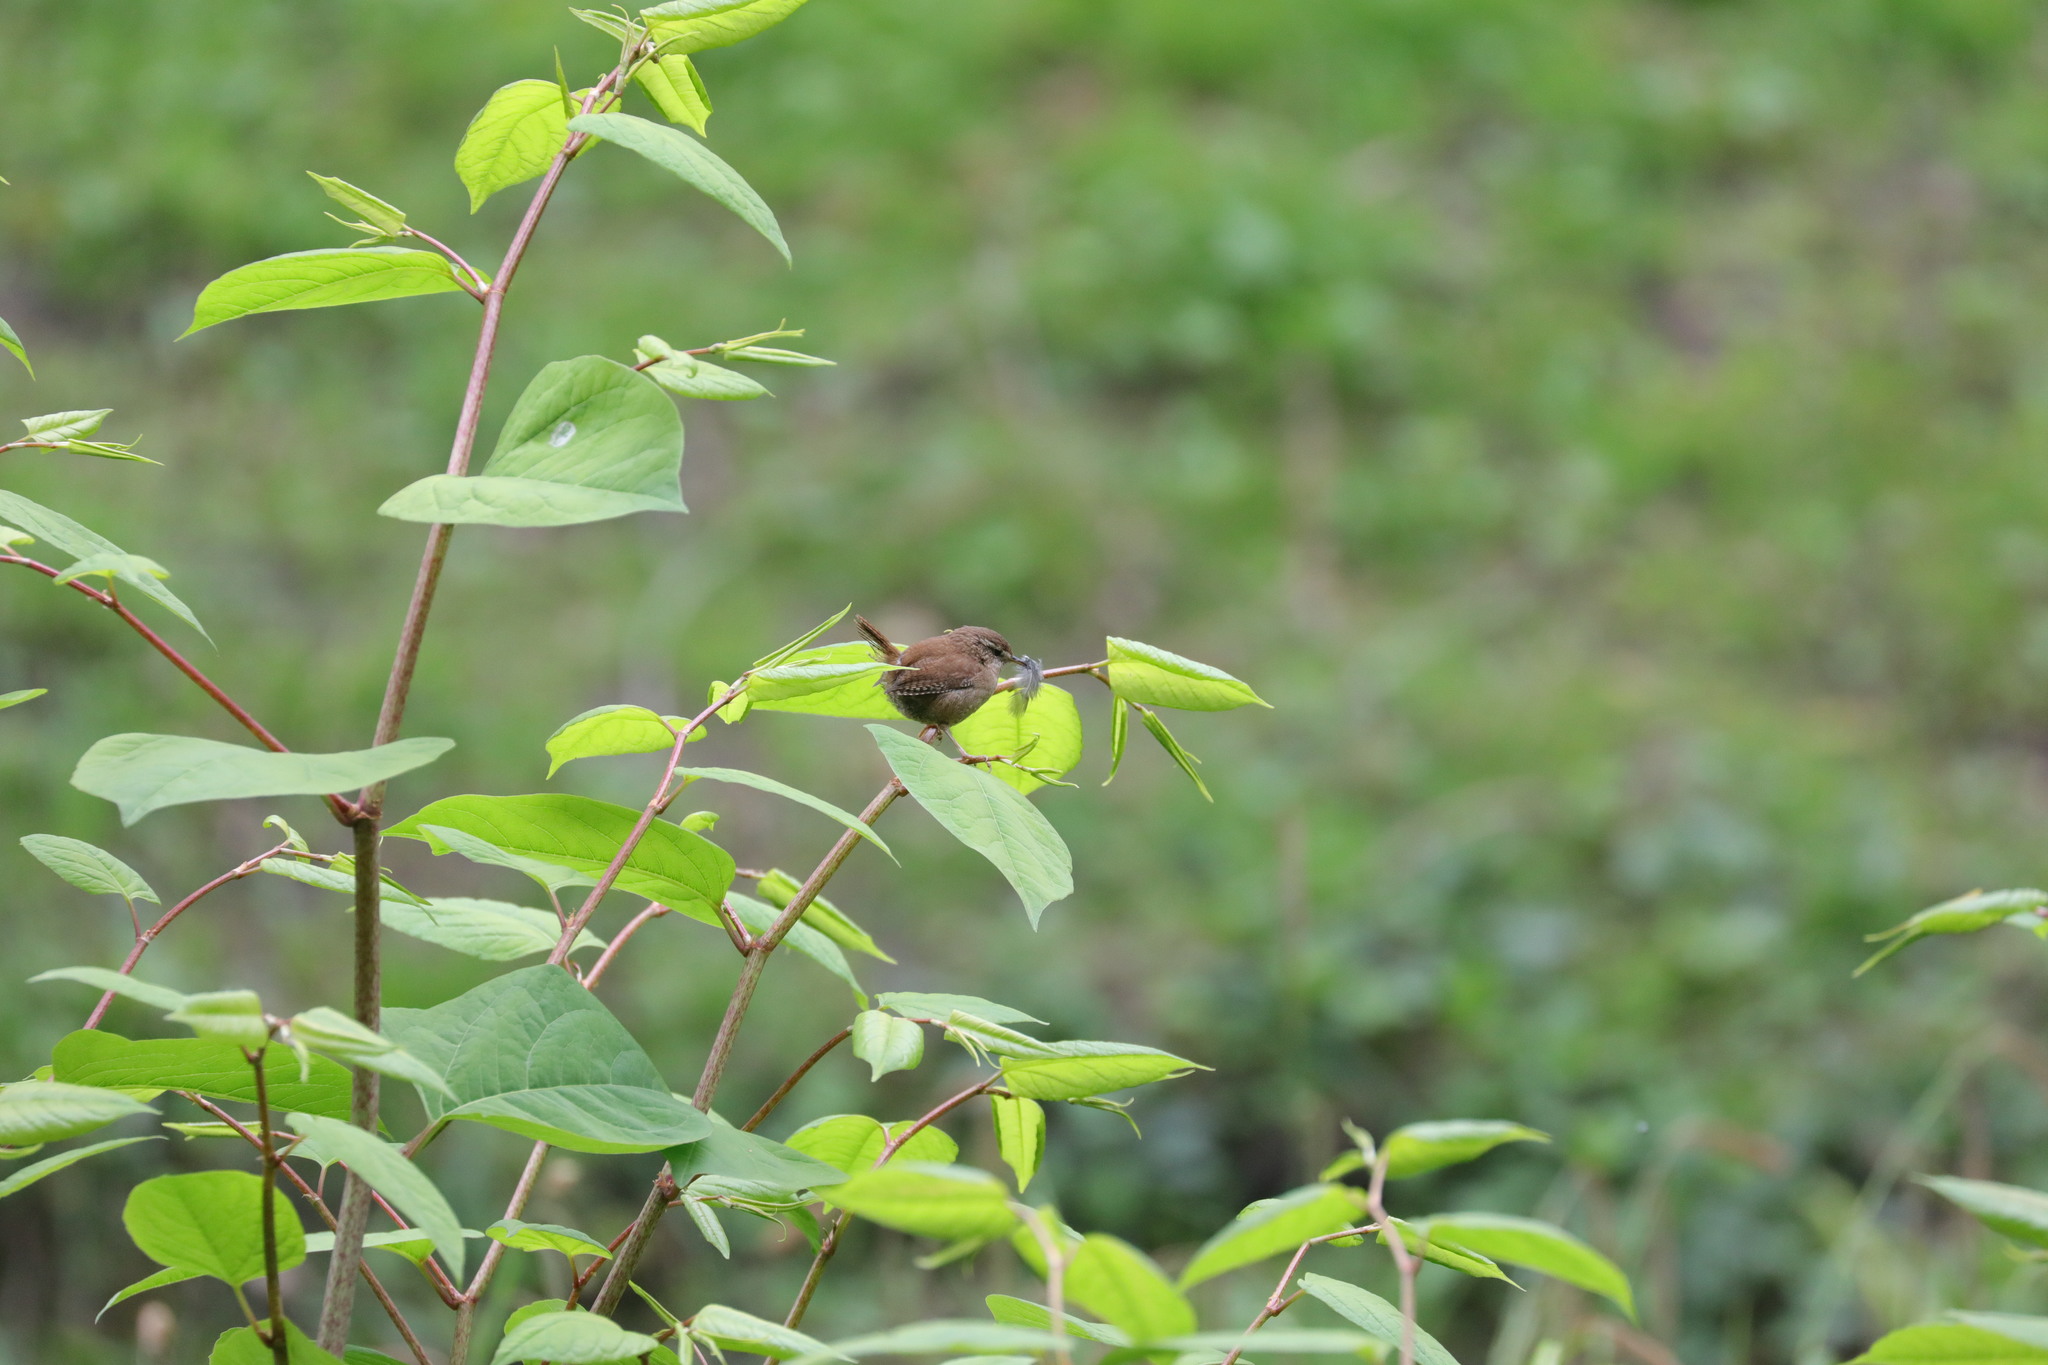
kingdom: Animalia
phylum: Chordata
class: Aves
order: Passeriformes
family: Troglodytidae
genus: Troglodytes
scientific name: Troglodytes troglodytes
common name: Eurasian wren
